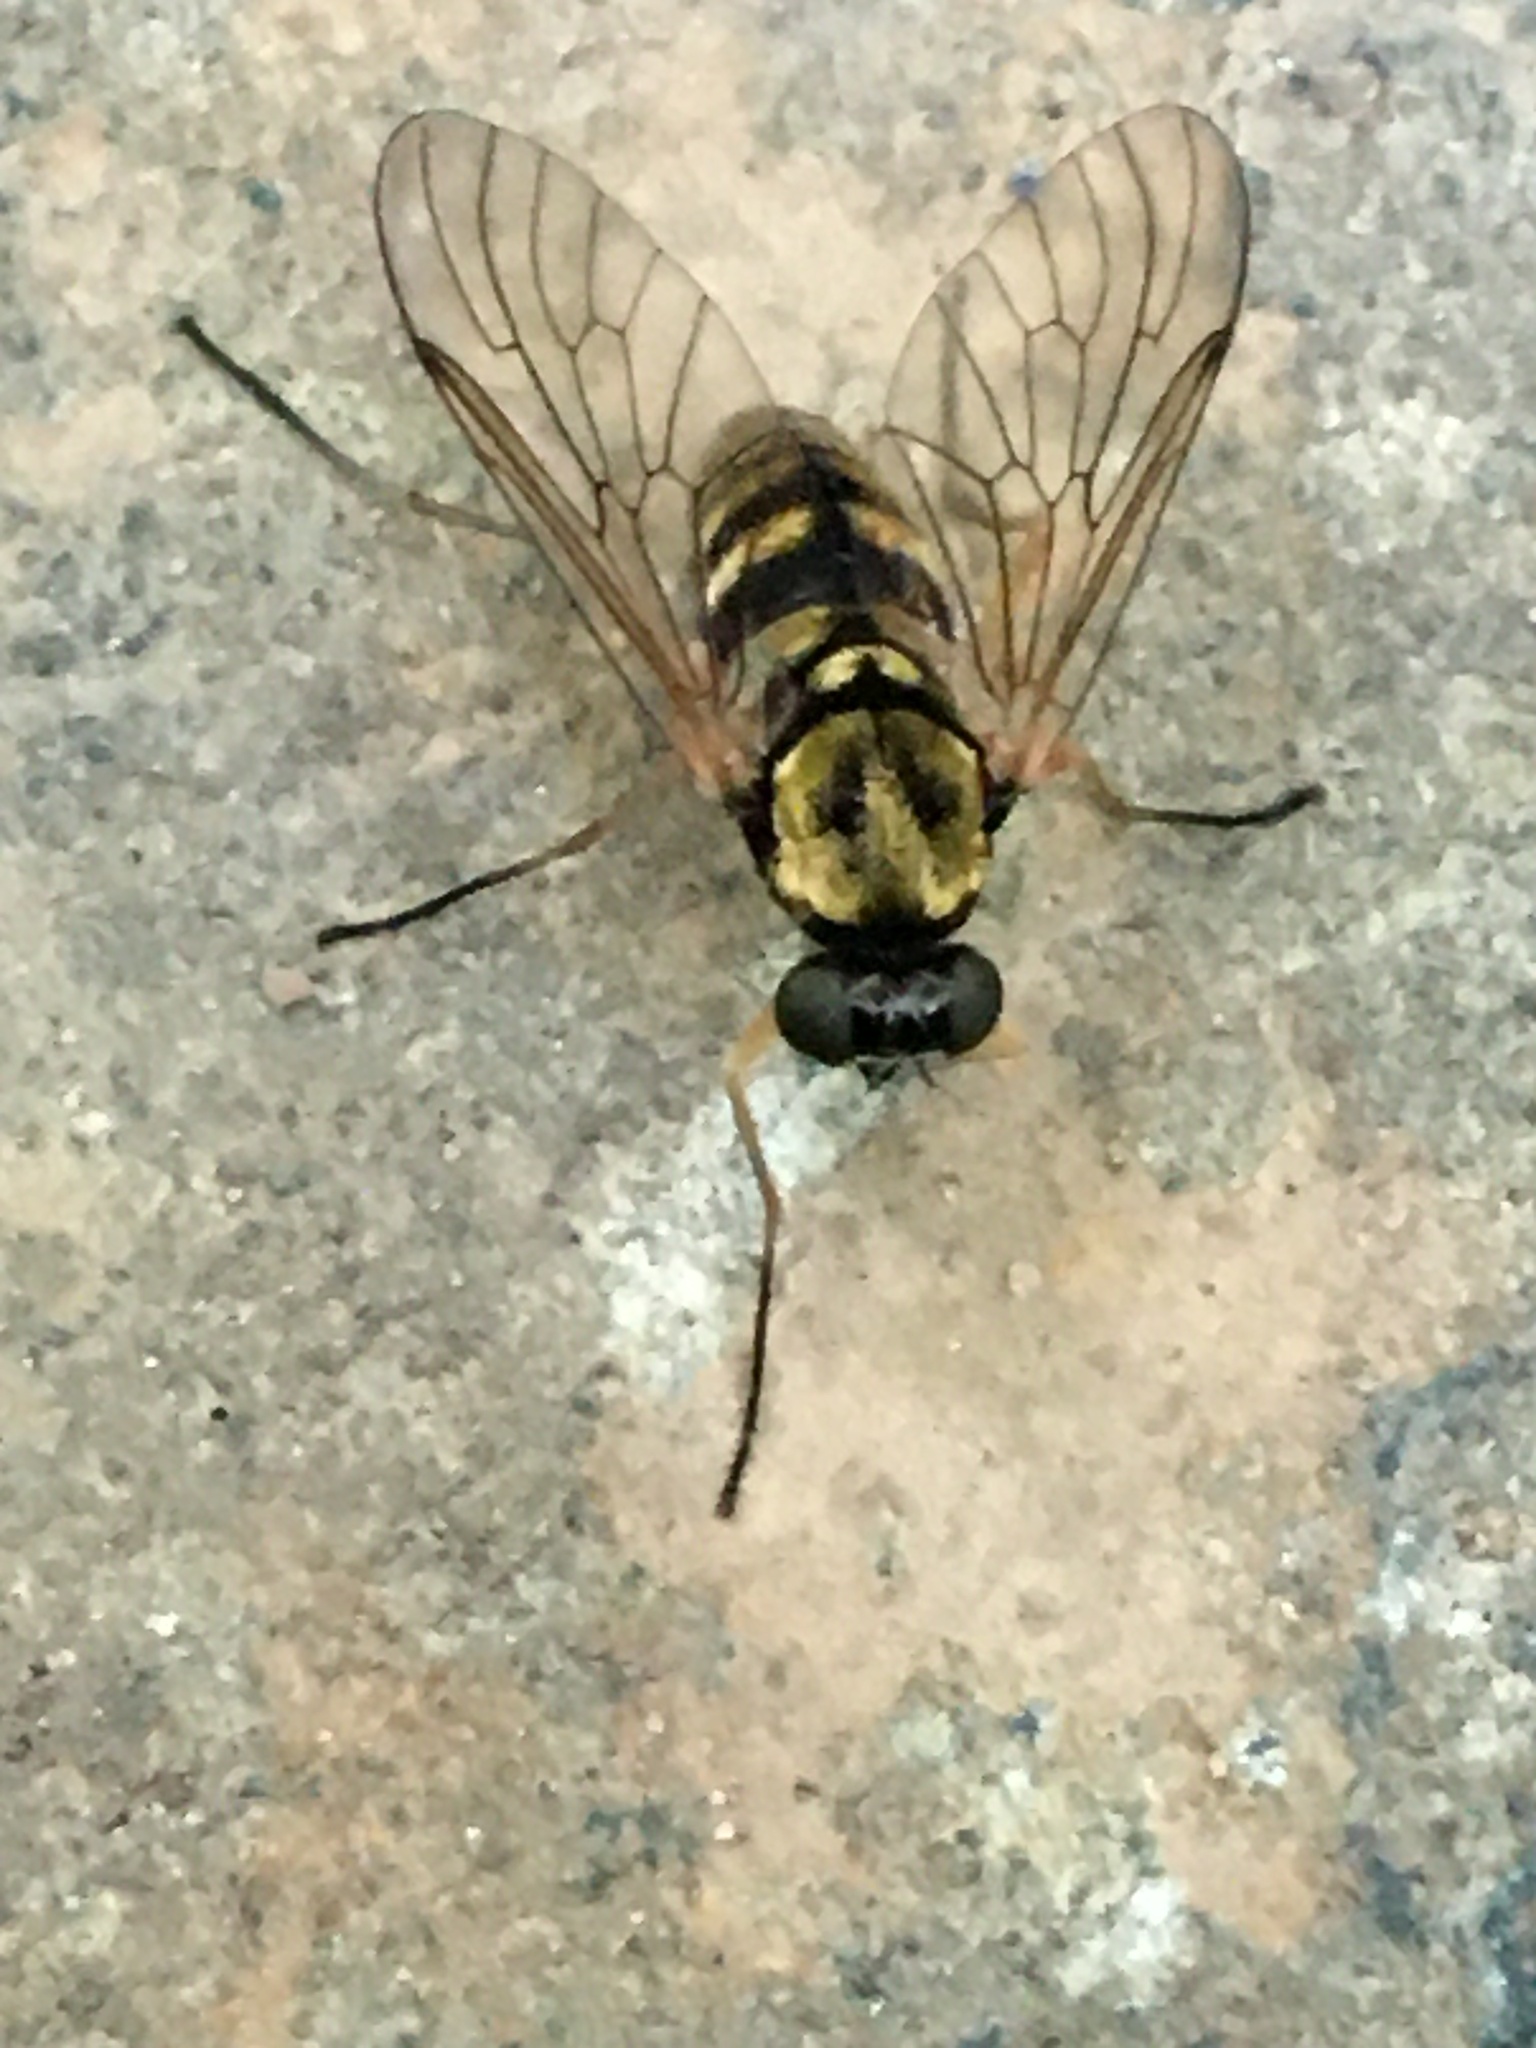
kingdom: Animalia
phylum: Arthropoda
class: Insecta
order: Diptera
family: Rhagionidae
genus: Chrysopilus
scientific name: Chrysopilus ornatus
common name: Ornate snipe fly
